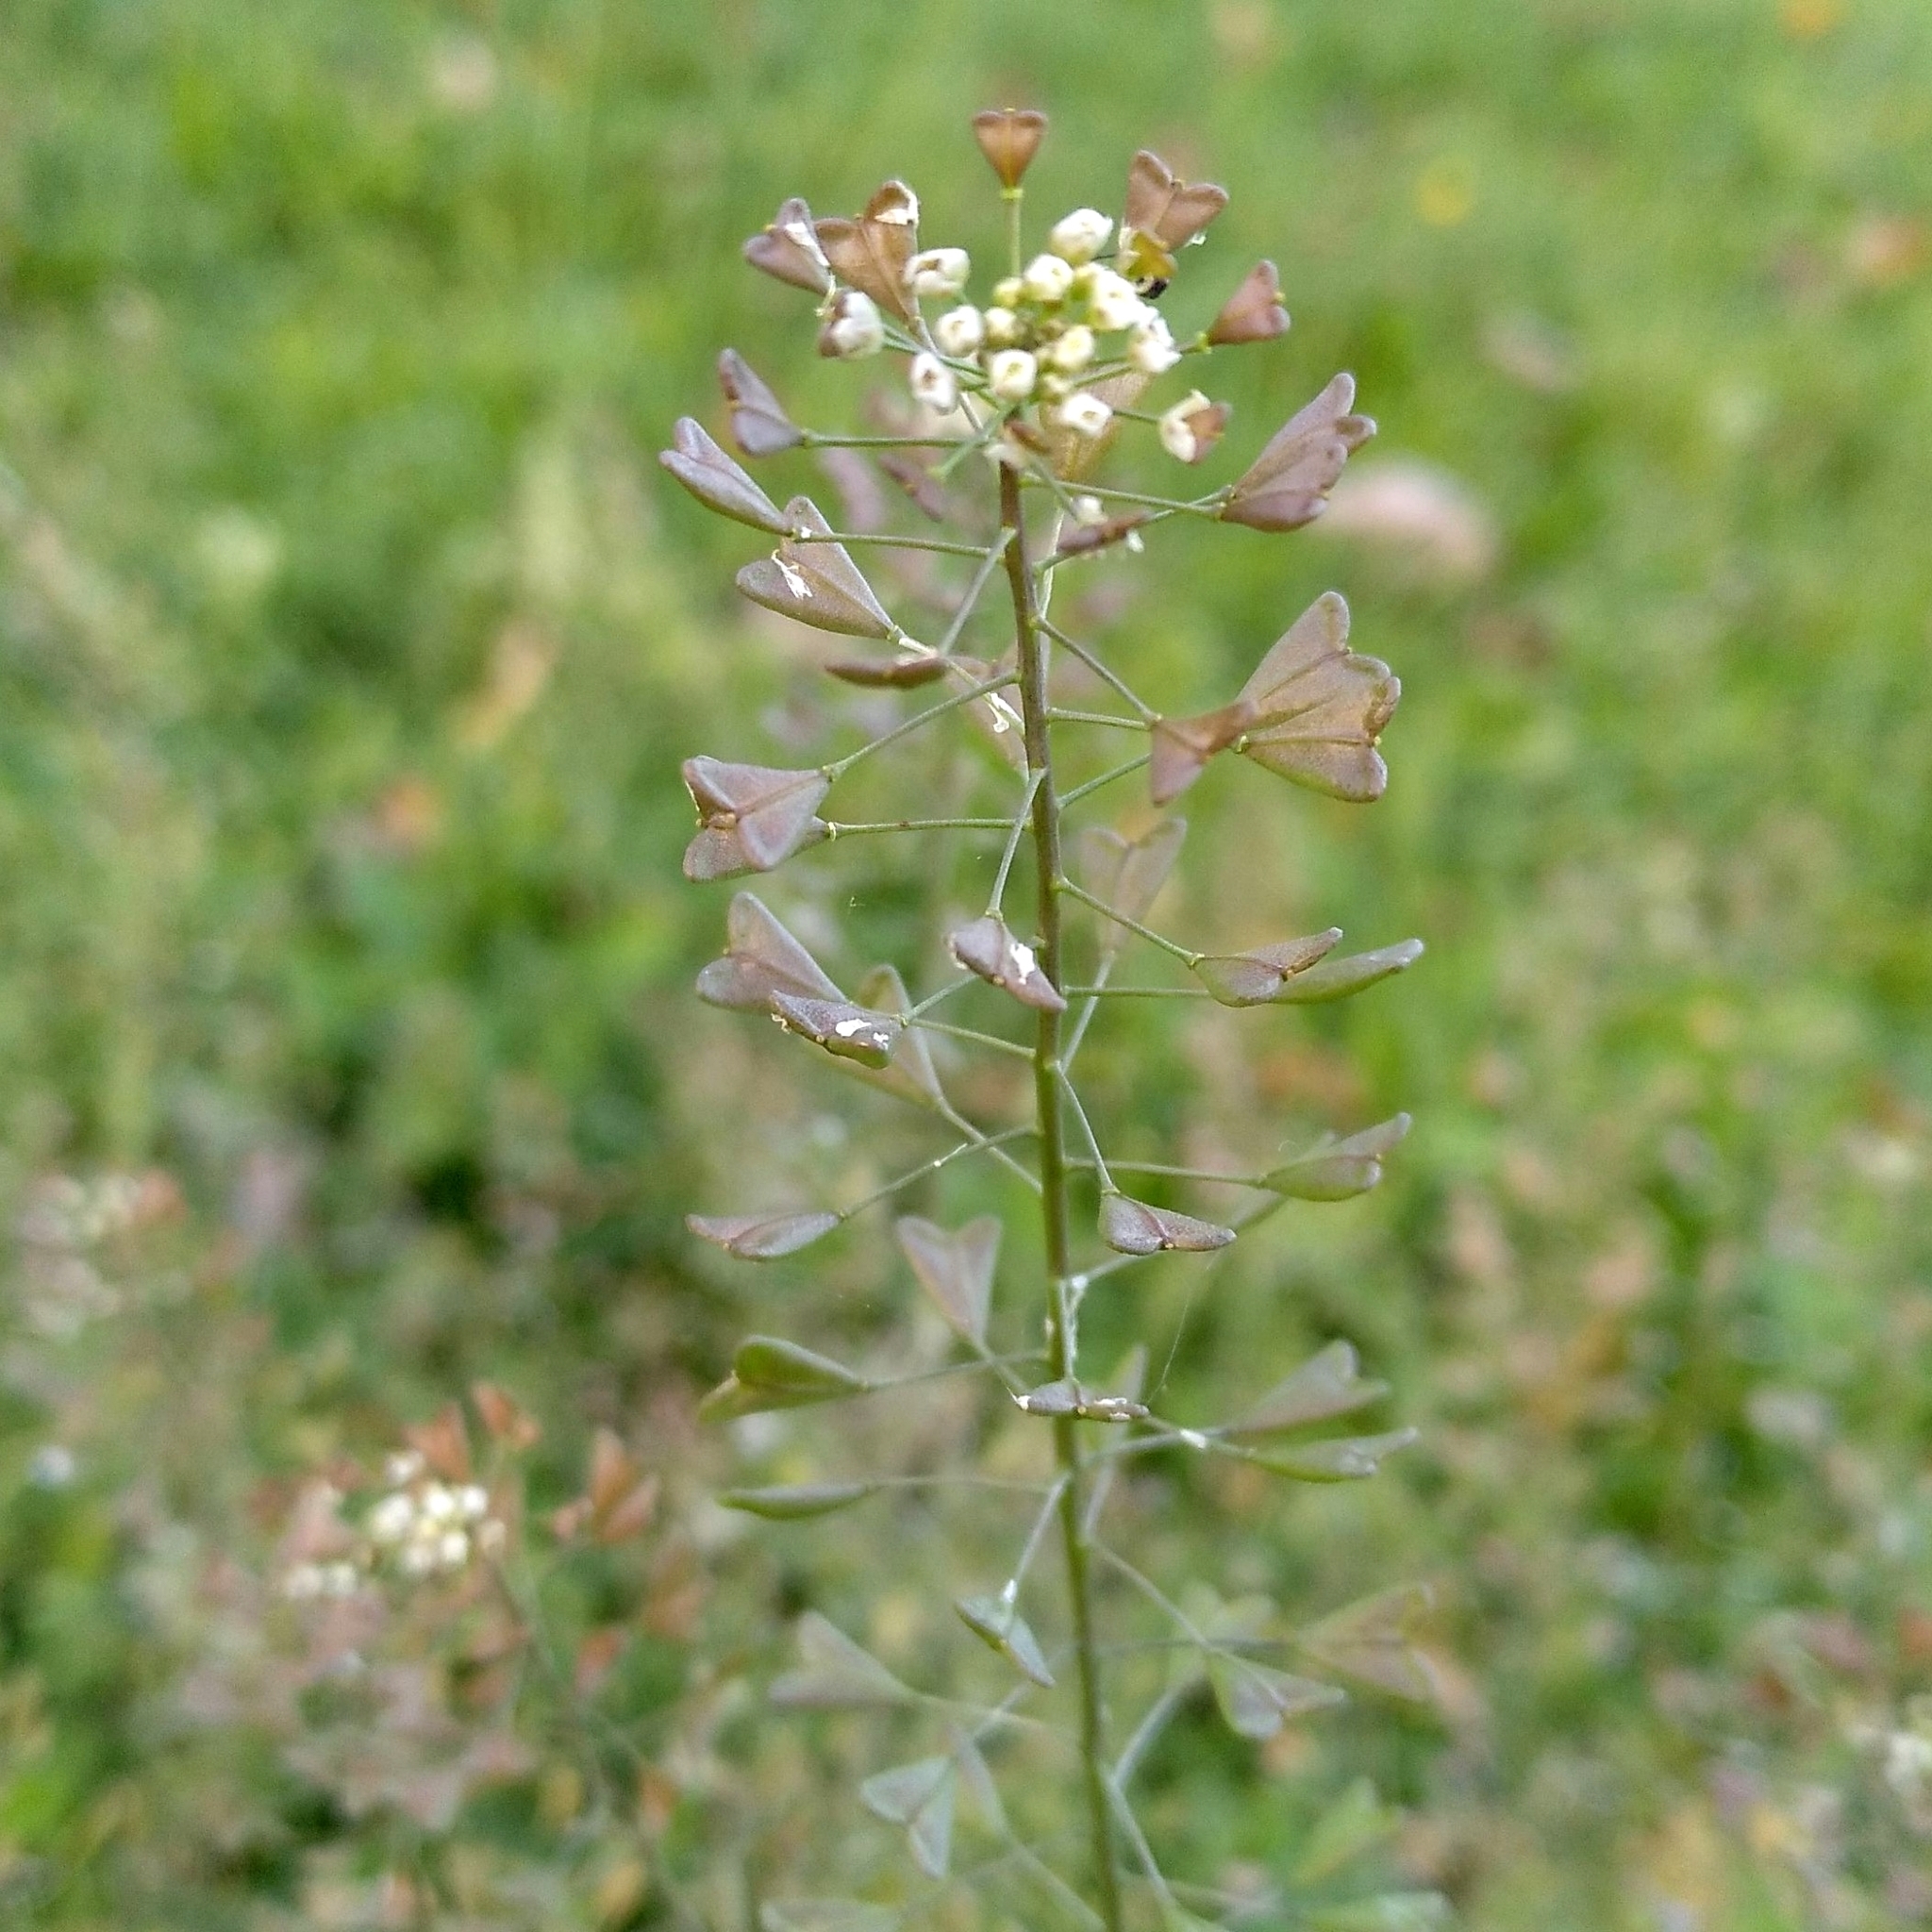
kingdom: Plantae
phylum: Tracheophyta
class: Magnoliopsida
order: Brassicales
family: Brassicaceae
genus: Capsella
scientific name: Capsella bursa-pastoris
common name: Shepherd's purse
